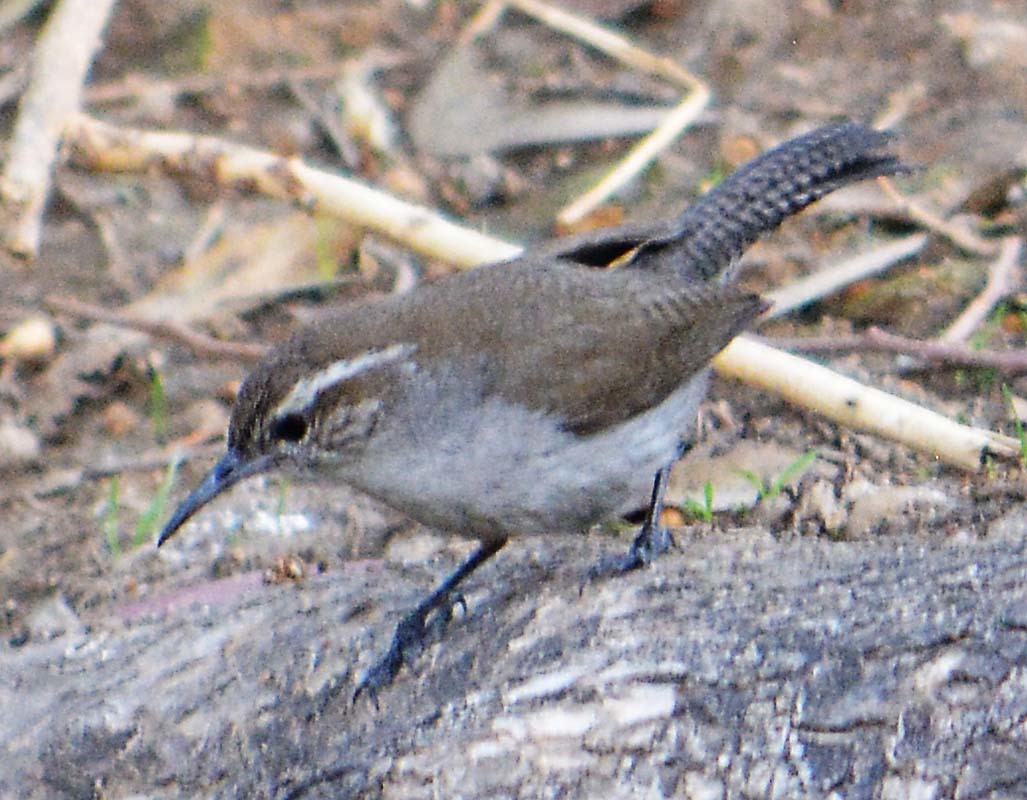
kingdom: Animalia
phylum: Chordata
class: Aves
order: Passeriformes
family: Troglodytidae
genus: Thryomanes
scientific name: Thryomanes bewickii
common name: Bewick's wren
